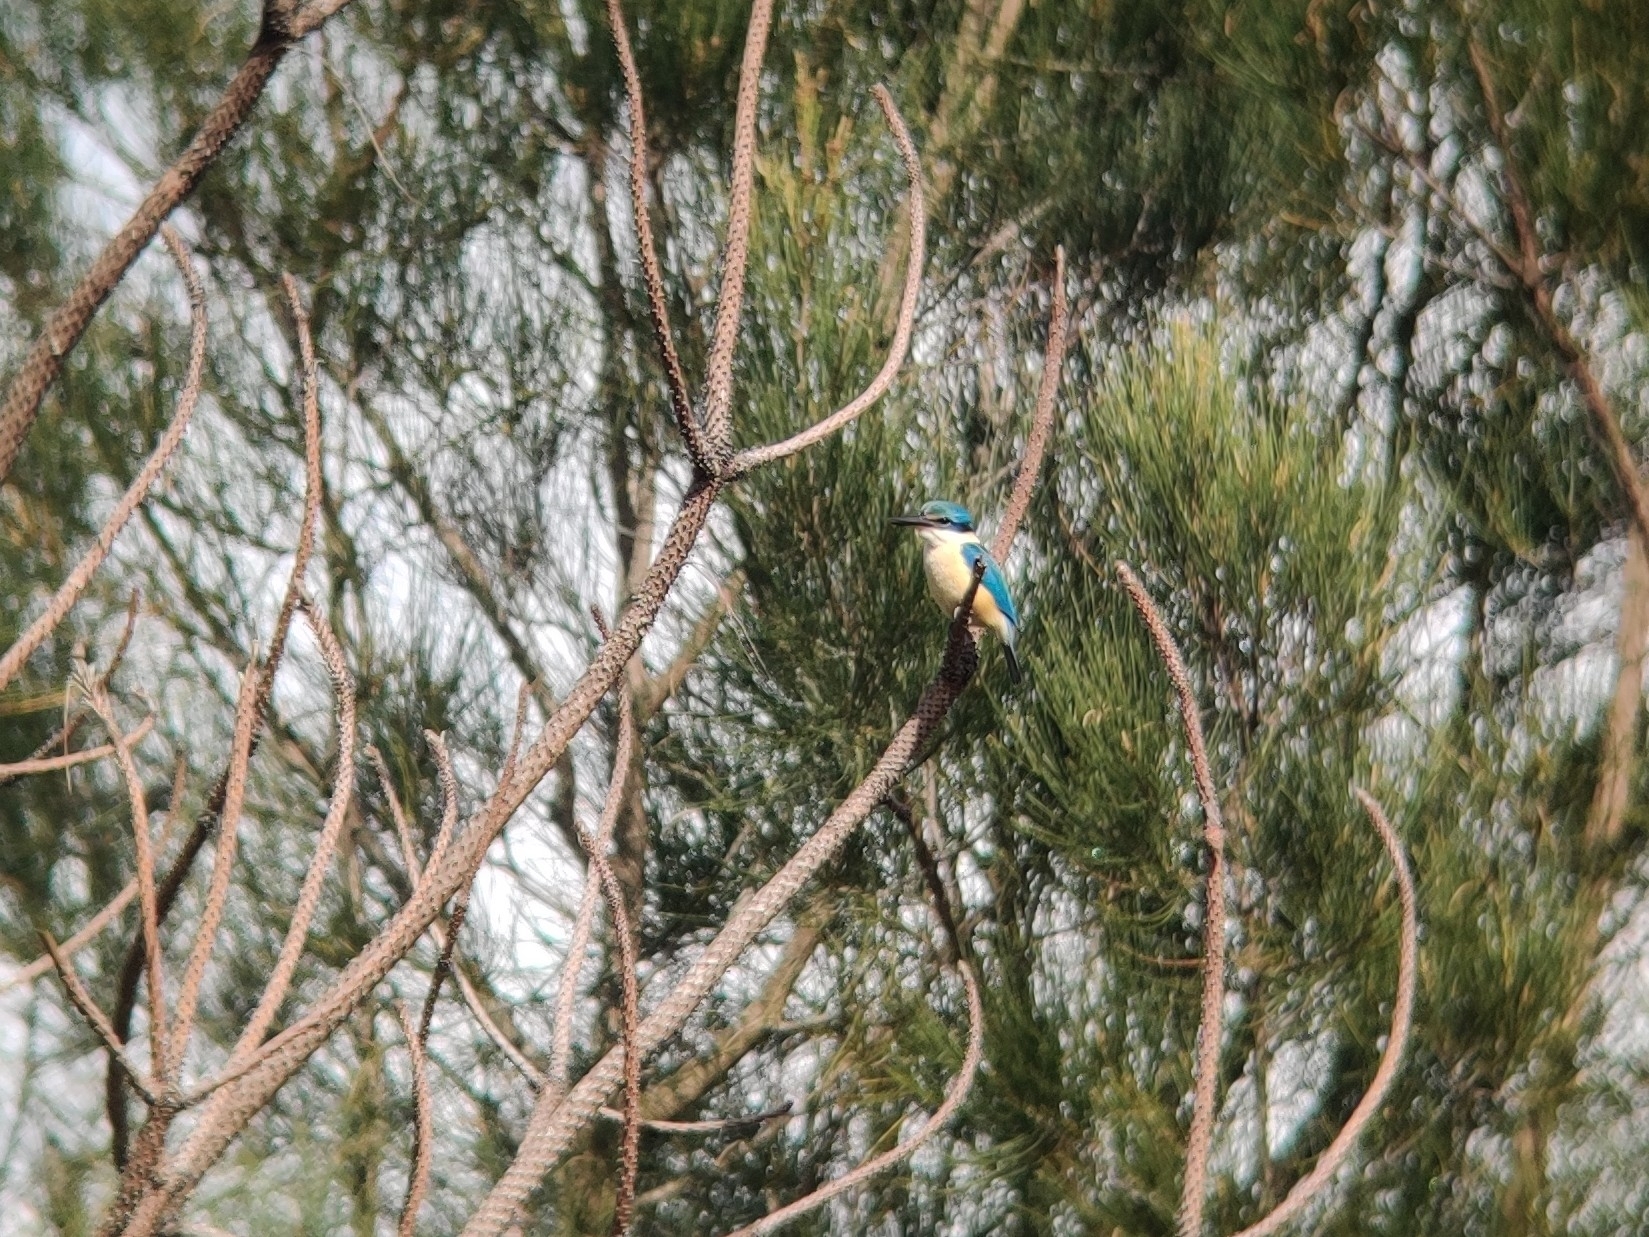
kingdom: Animalia
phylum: Chordata
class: Aves
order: Coraciiformes
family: Alcedinidae
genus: Todiramphus
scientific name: Todiramphus sanctus
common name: Sacred kingfisher
